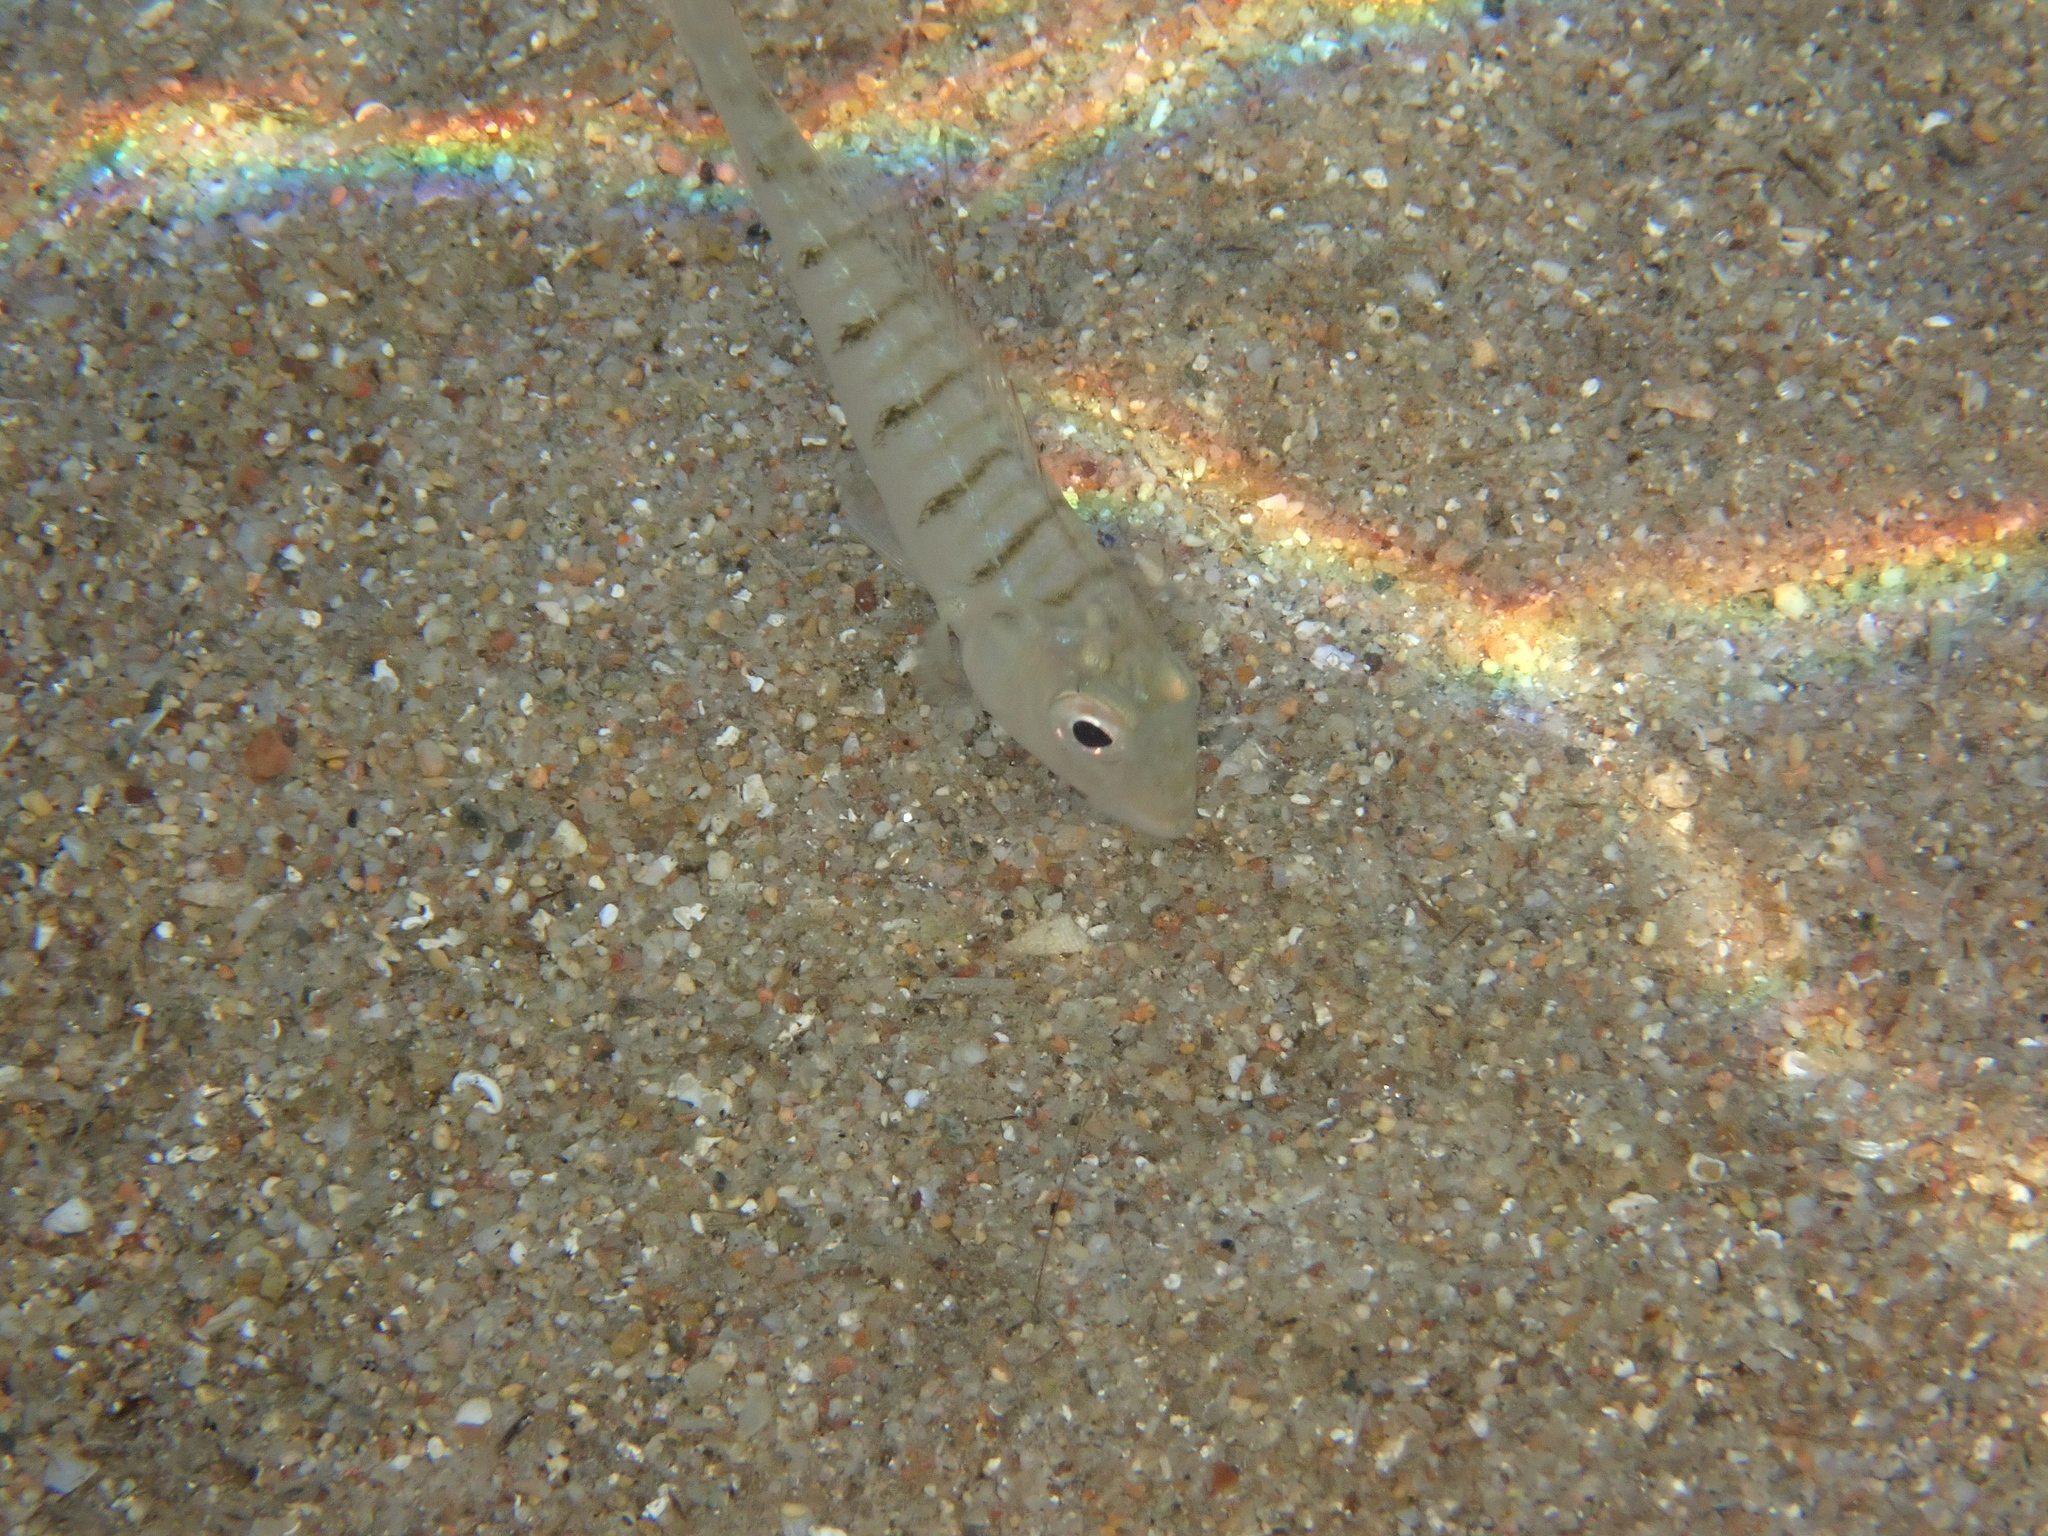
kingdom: Animalia
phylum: Chordata
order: Perciformes
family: Sparidae
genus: Lithognathus
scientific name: Lithognathus mormyrus
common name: Sand steenbras
